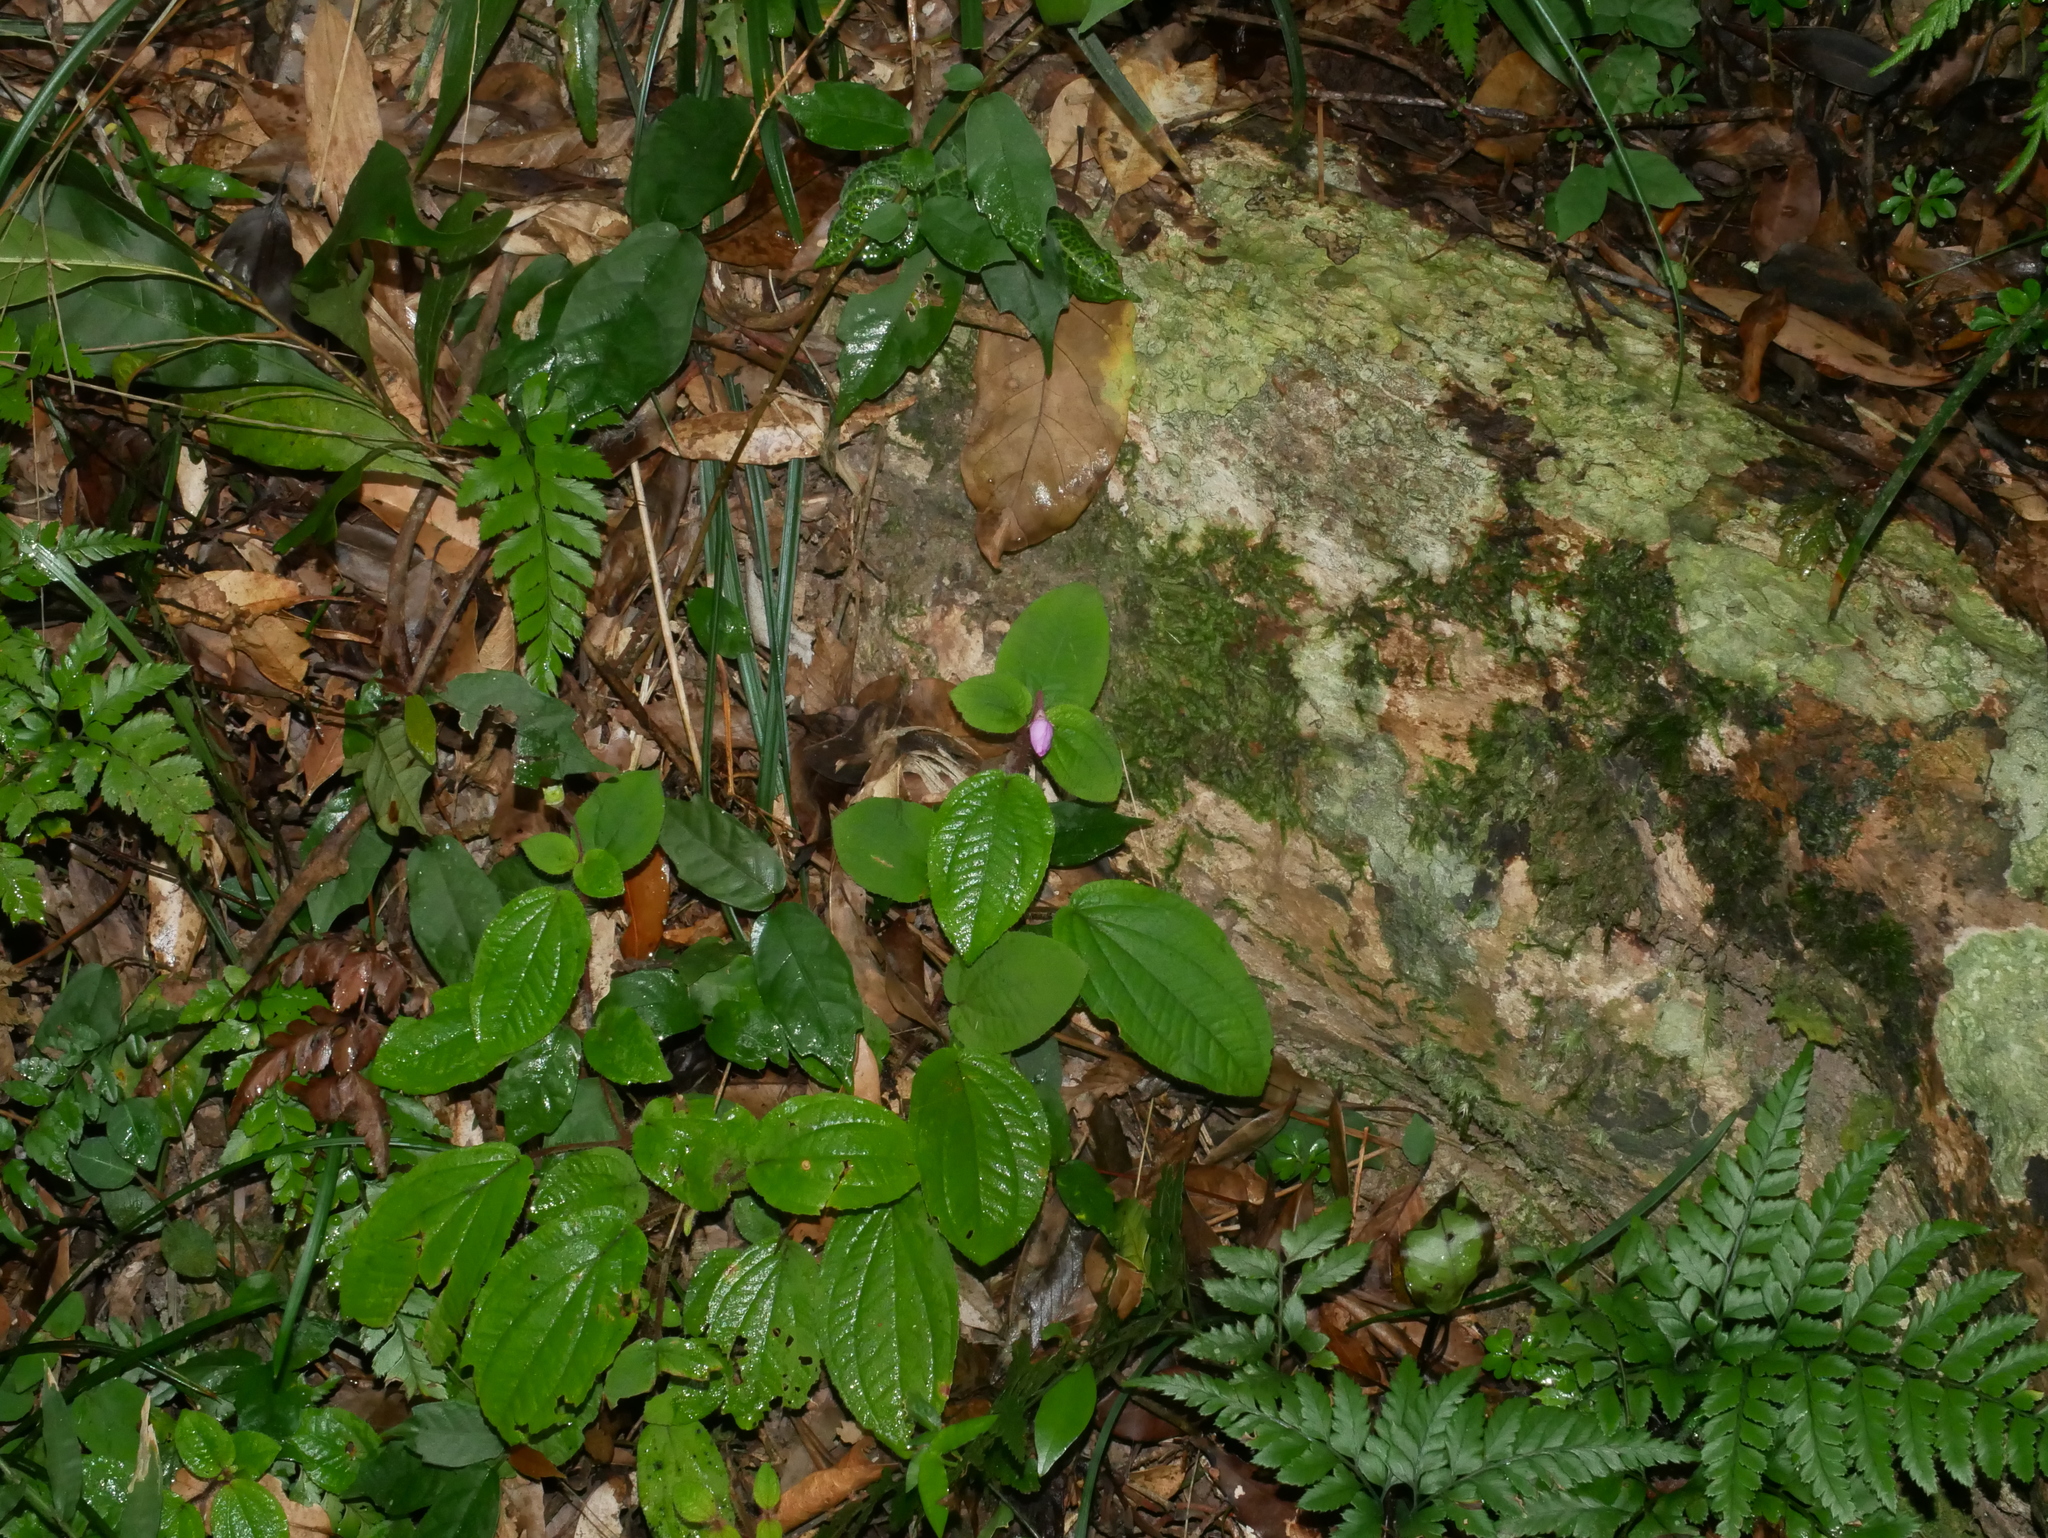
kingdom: Plantae
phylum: Tracheophyta
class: Magnoliopsida
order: Myrtales
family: Melastomataceae
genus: Bredia
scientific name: Bredia dulanica
